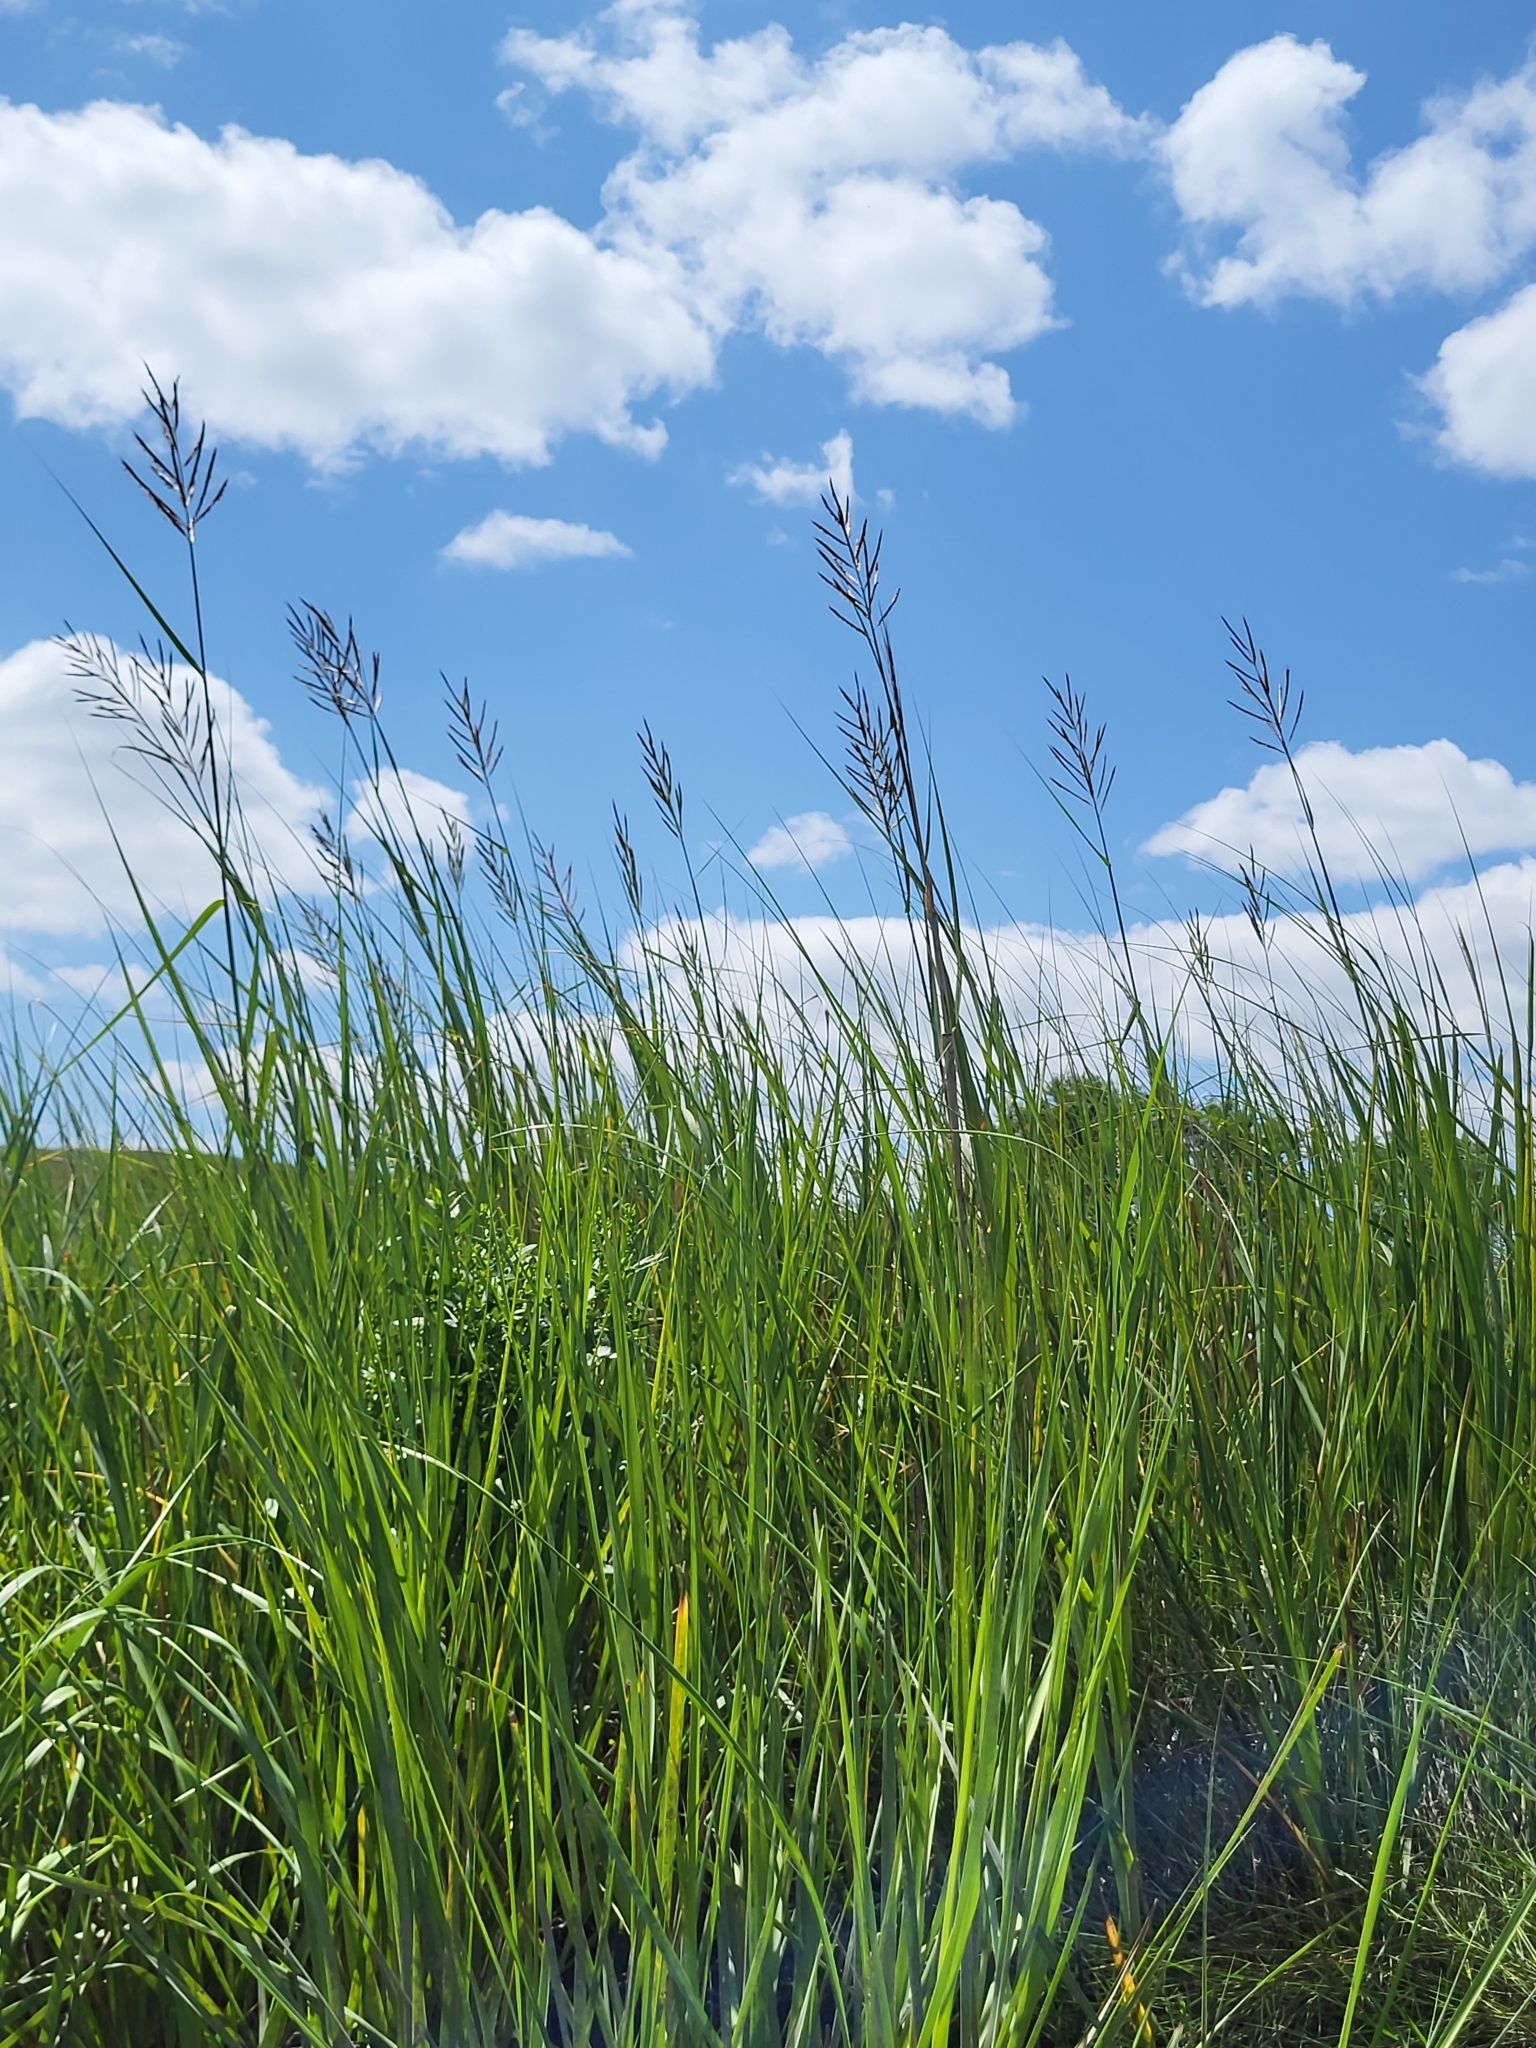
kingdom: Plantae
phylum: Tracheophyta
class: Liliopsida
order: Poales
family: Poaceae
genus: Sporobolus
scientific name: Sporobolus cynosuroides
